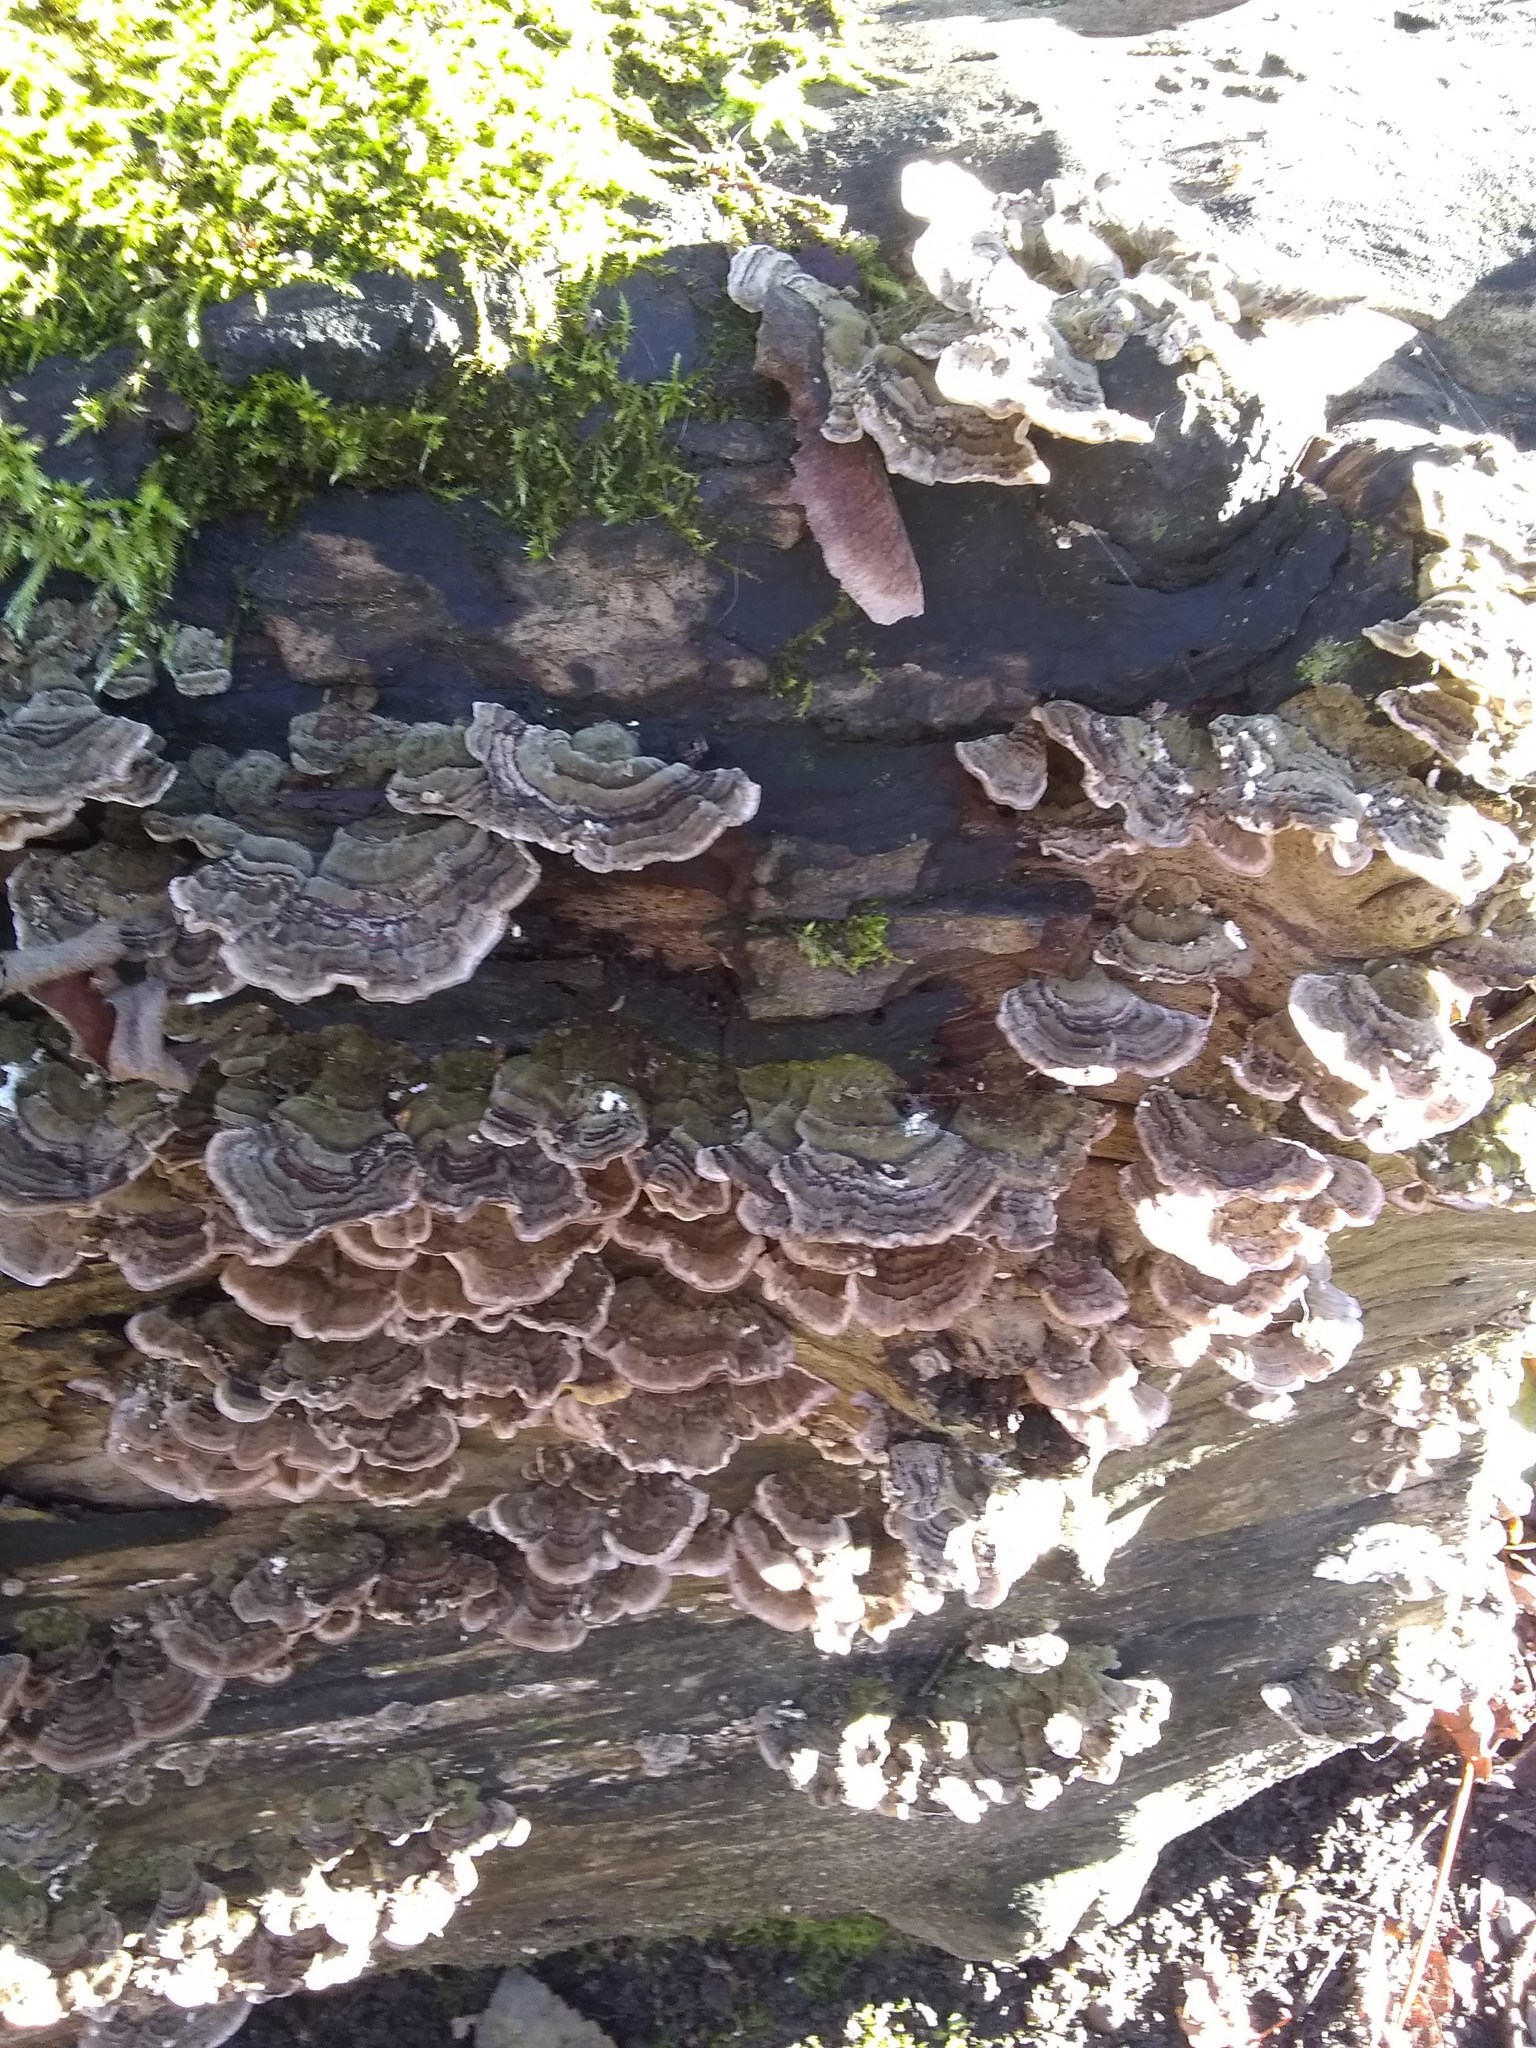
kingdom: Fungi
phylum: Basidiomycota
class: Agaricomycetes
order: Polyporales
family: Polyporaceae
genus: Trametes
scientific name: Trametes versicolor
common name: Turkeytail
